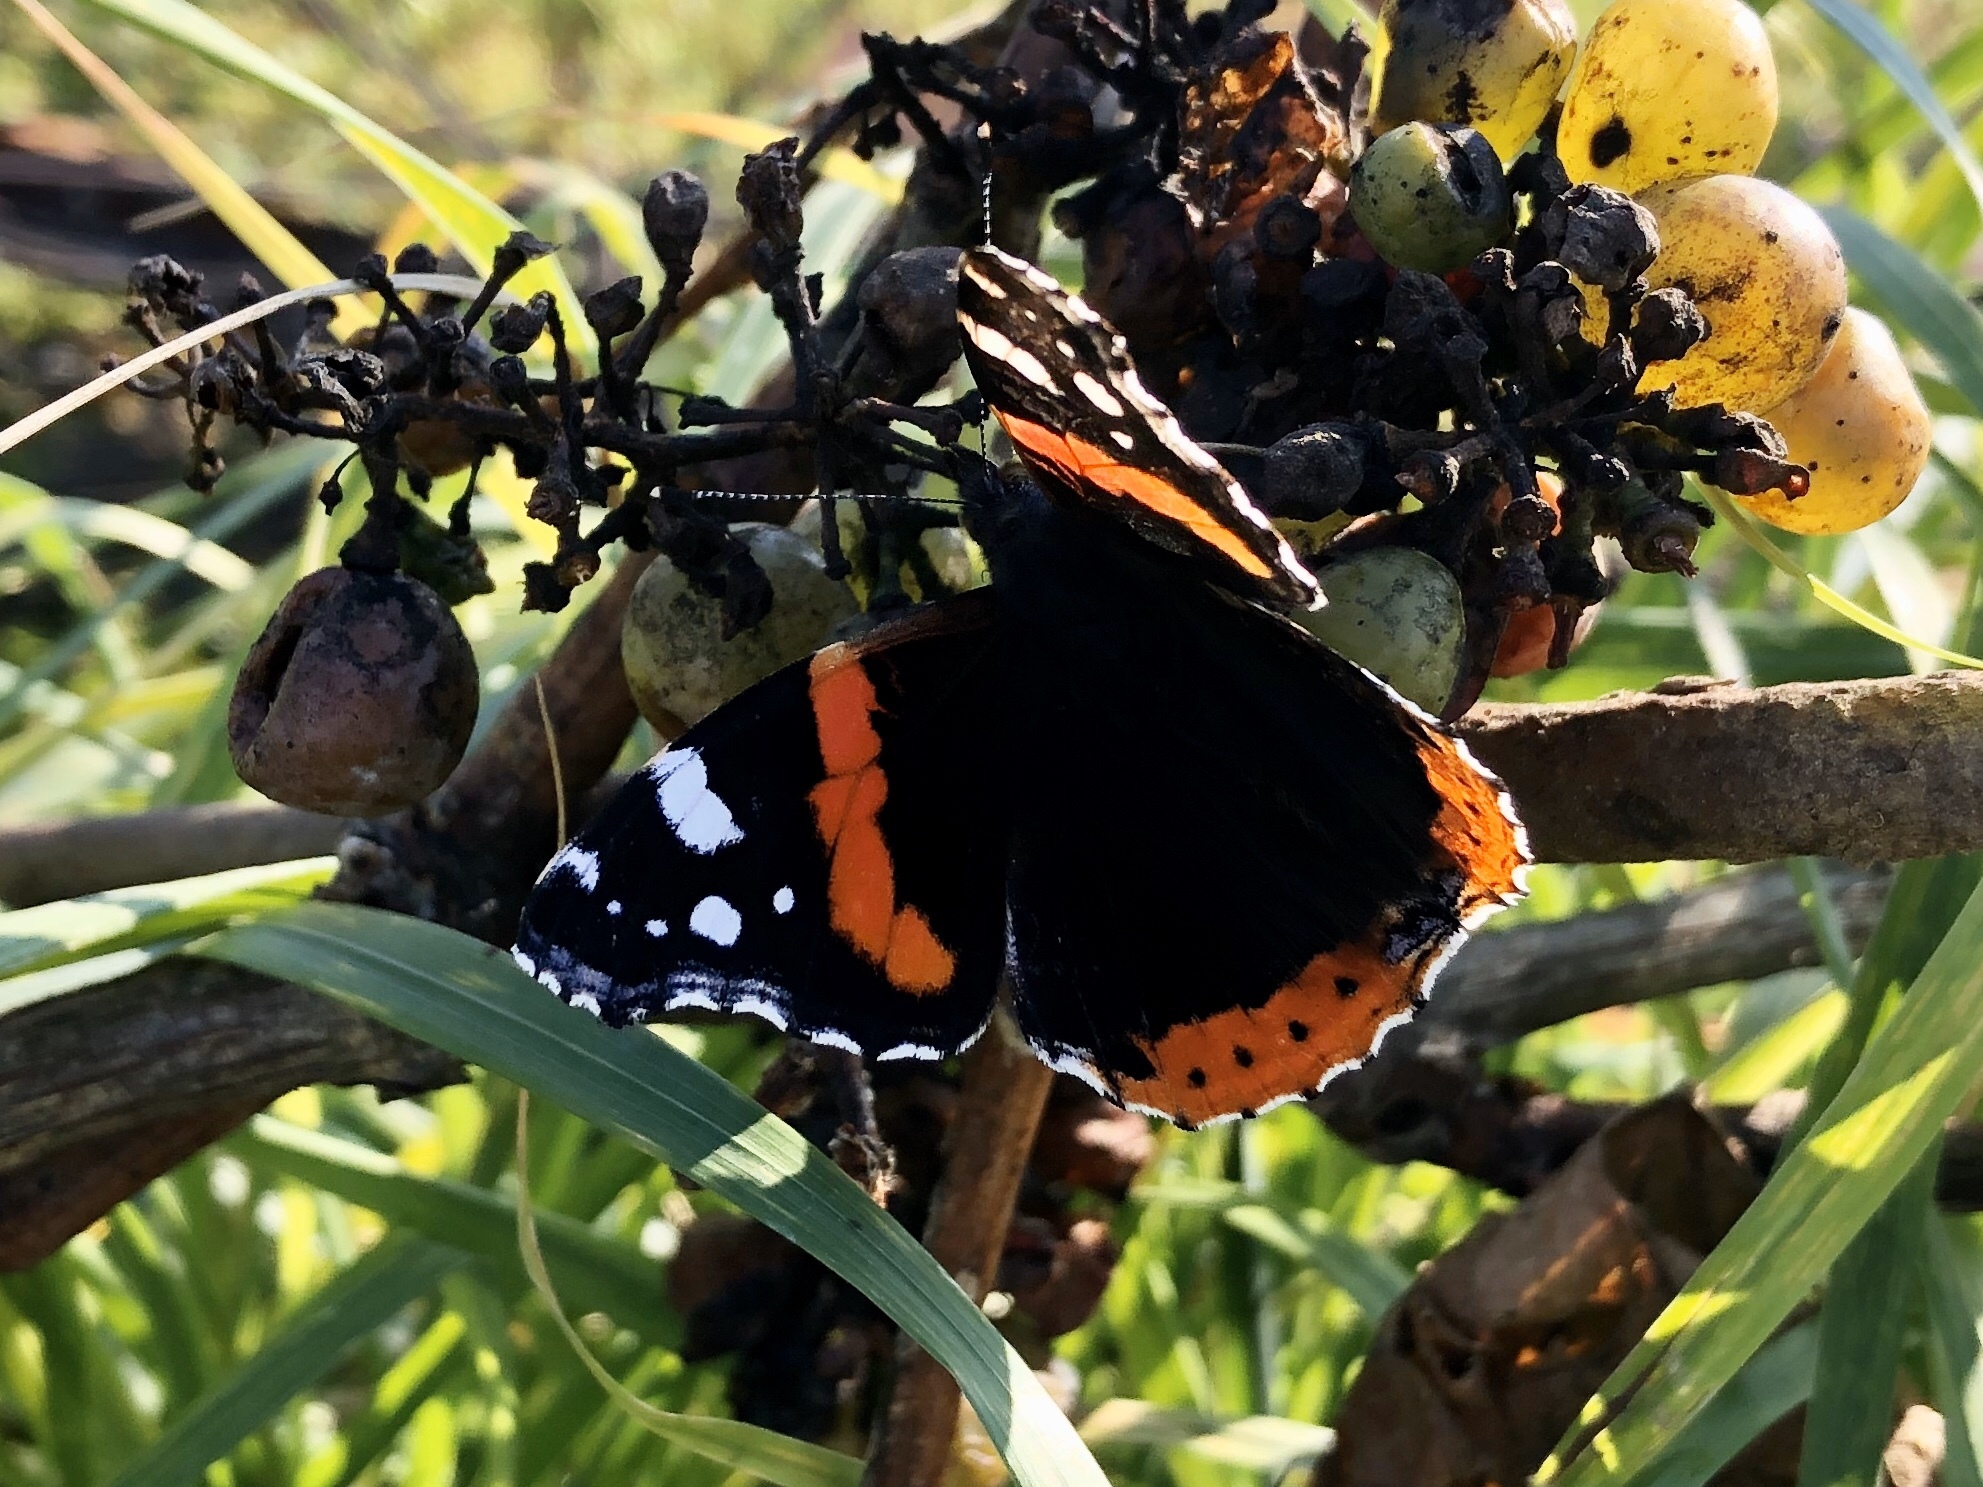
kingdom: Animalia
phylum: Arthropoda
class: Insecta
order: Lepidoptera
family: Nymphalidae
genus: Vanessa
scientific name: Vanessa atalanta
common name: Red admiral
